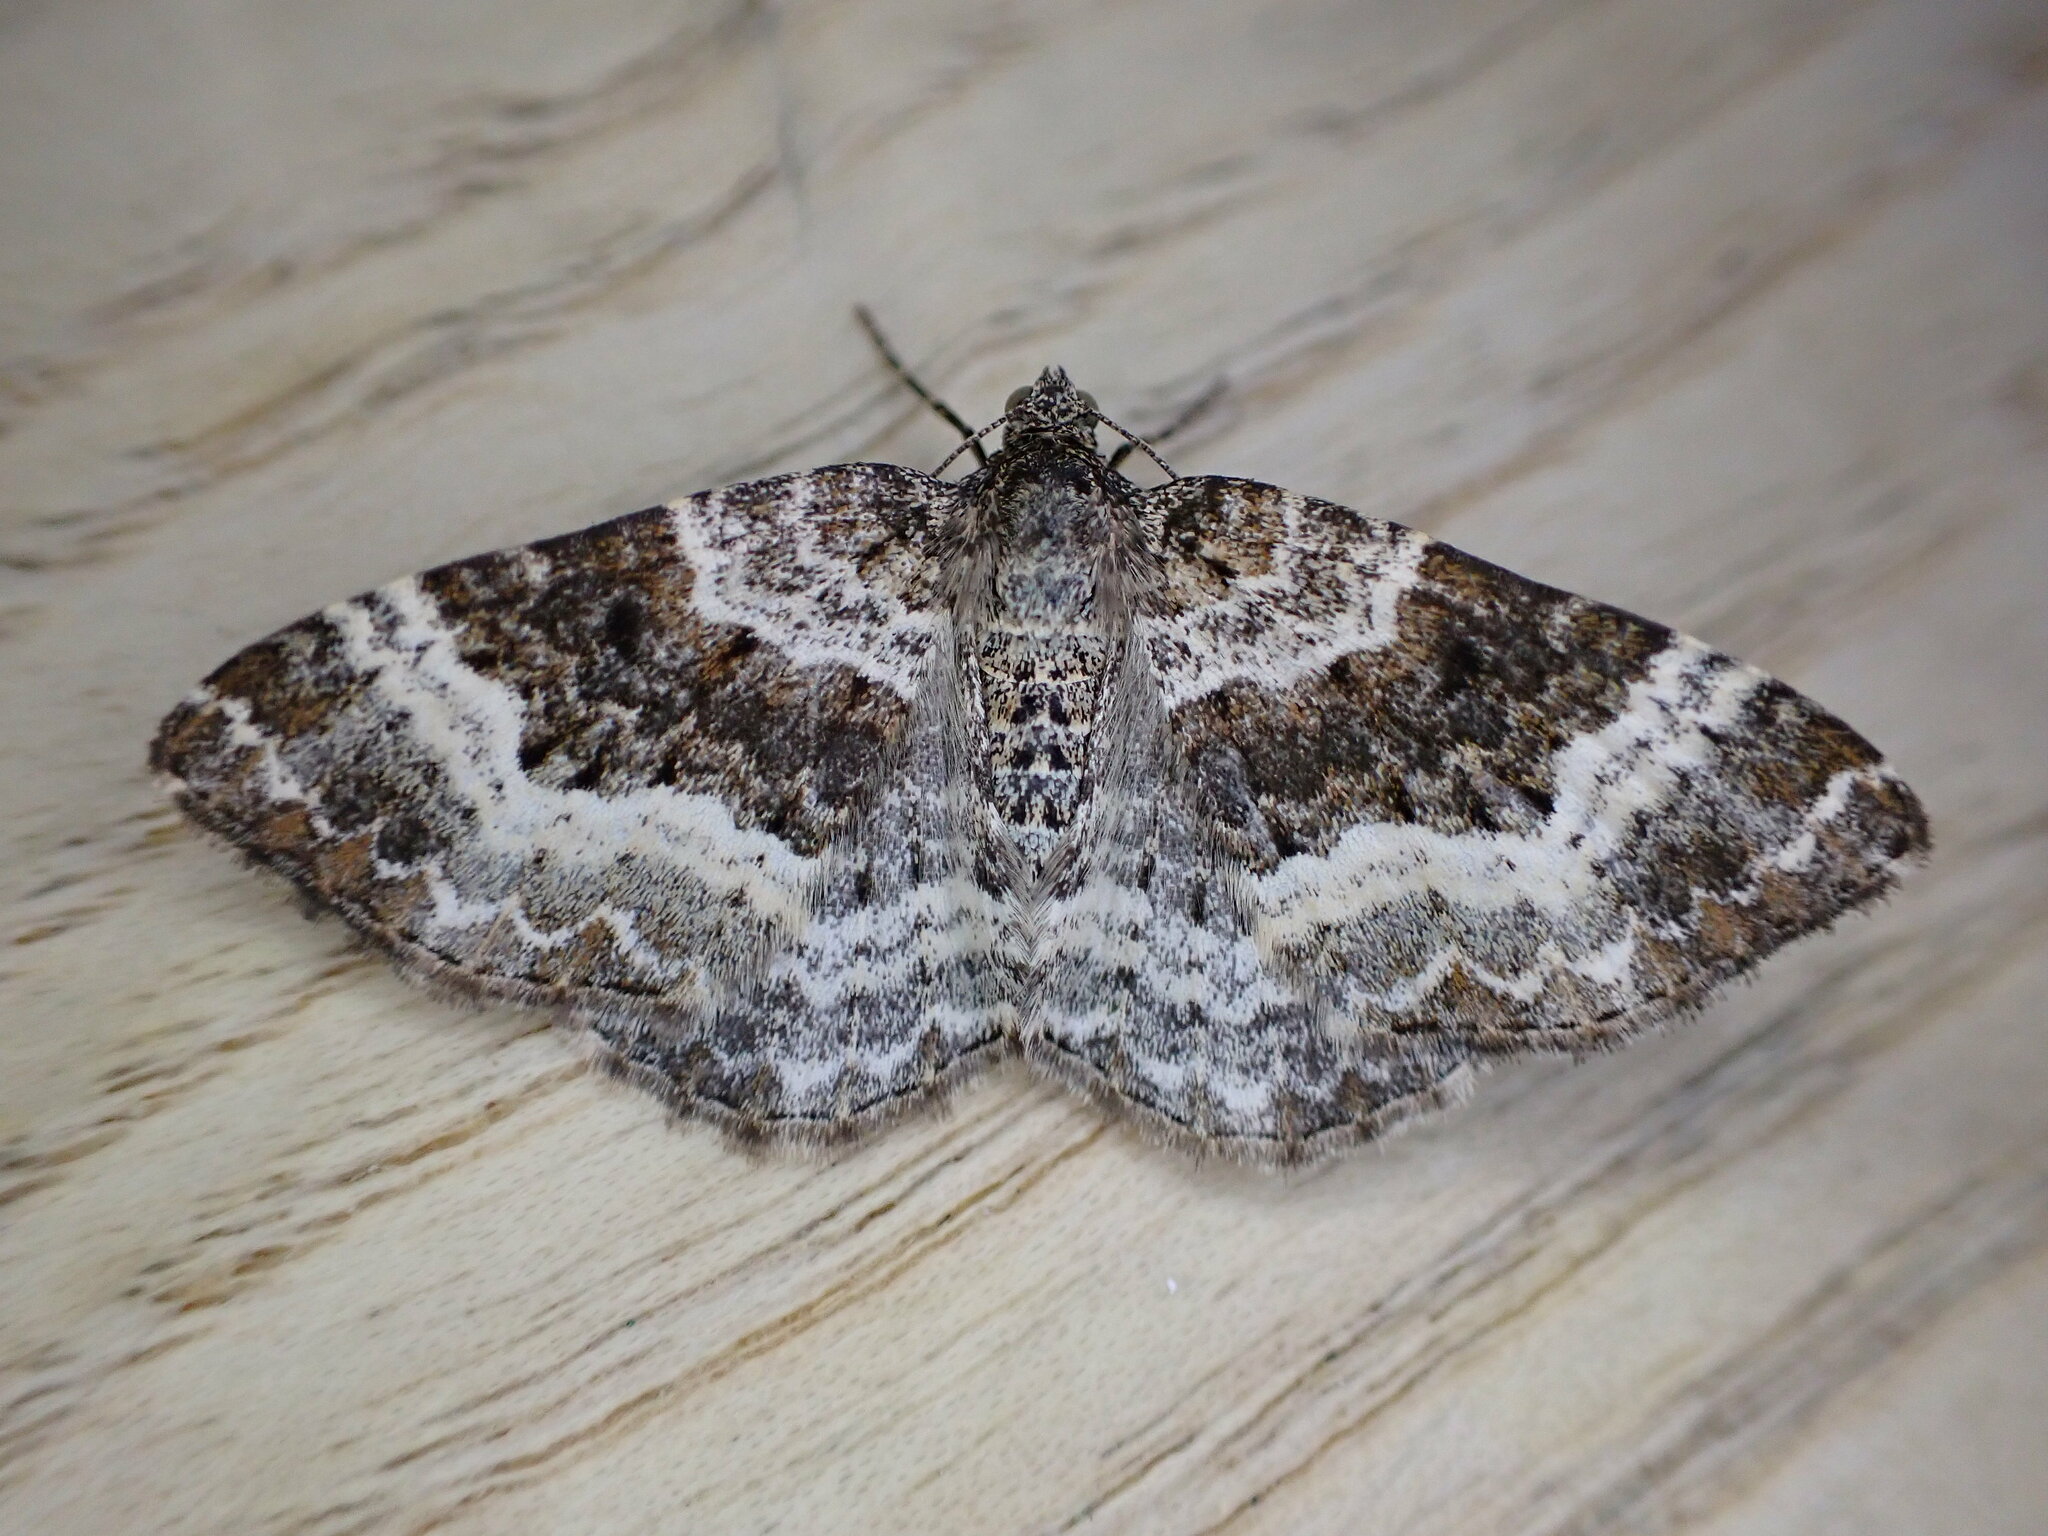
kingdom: Animalia
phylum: Arthropoda
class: Insecta
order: Lepidoptera
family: Geometridae
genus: Epirrhoe
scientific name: Epirrhoe alternata
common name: Common carpet
